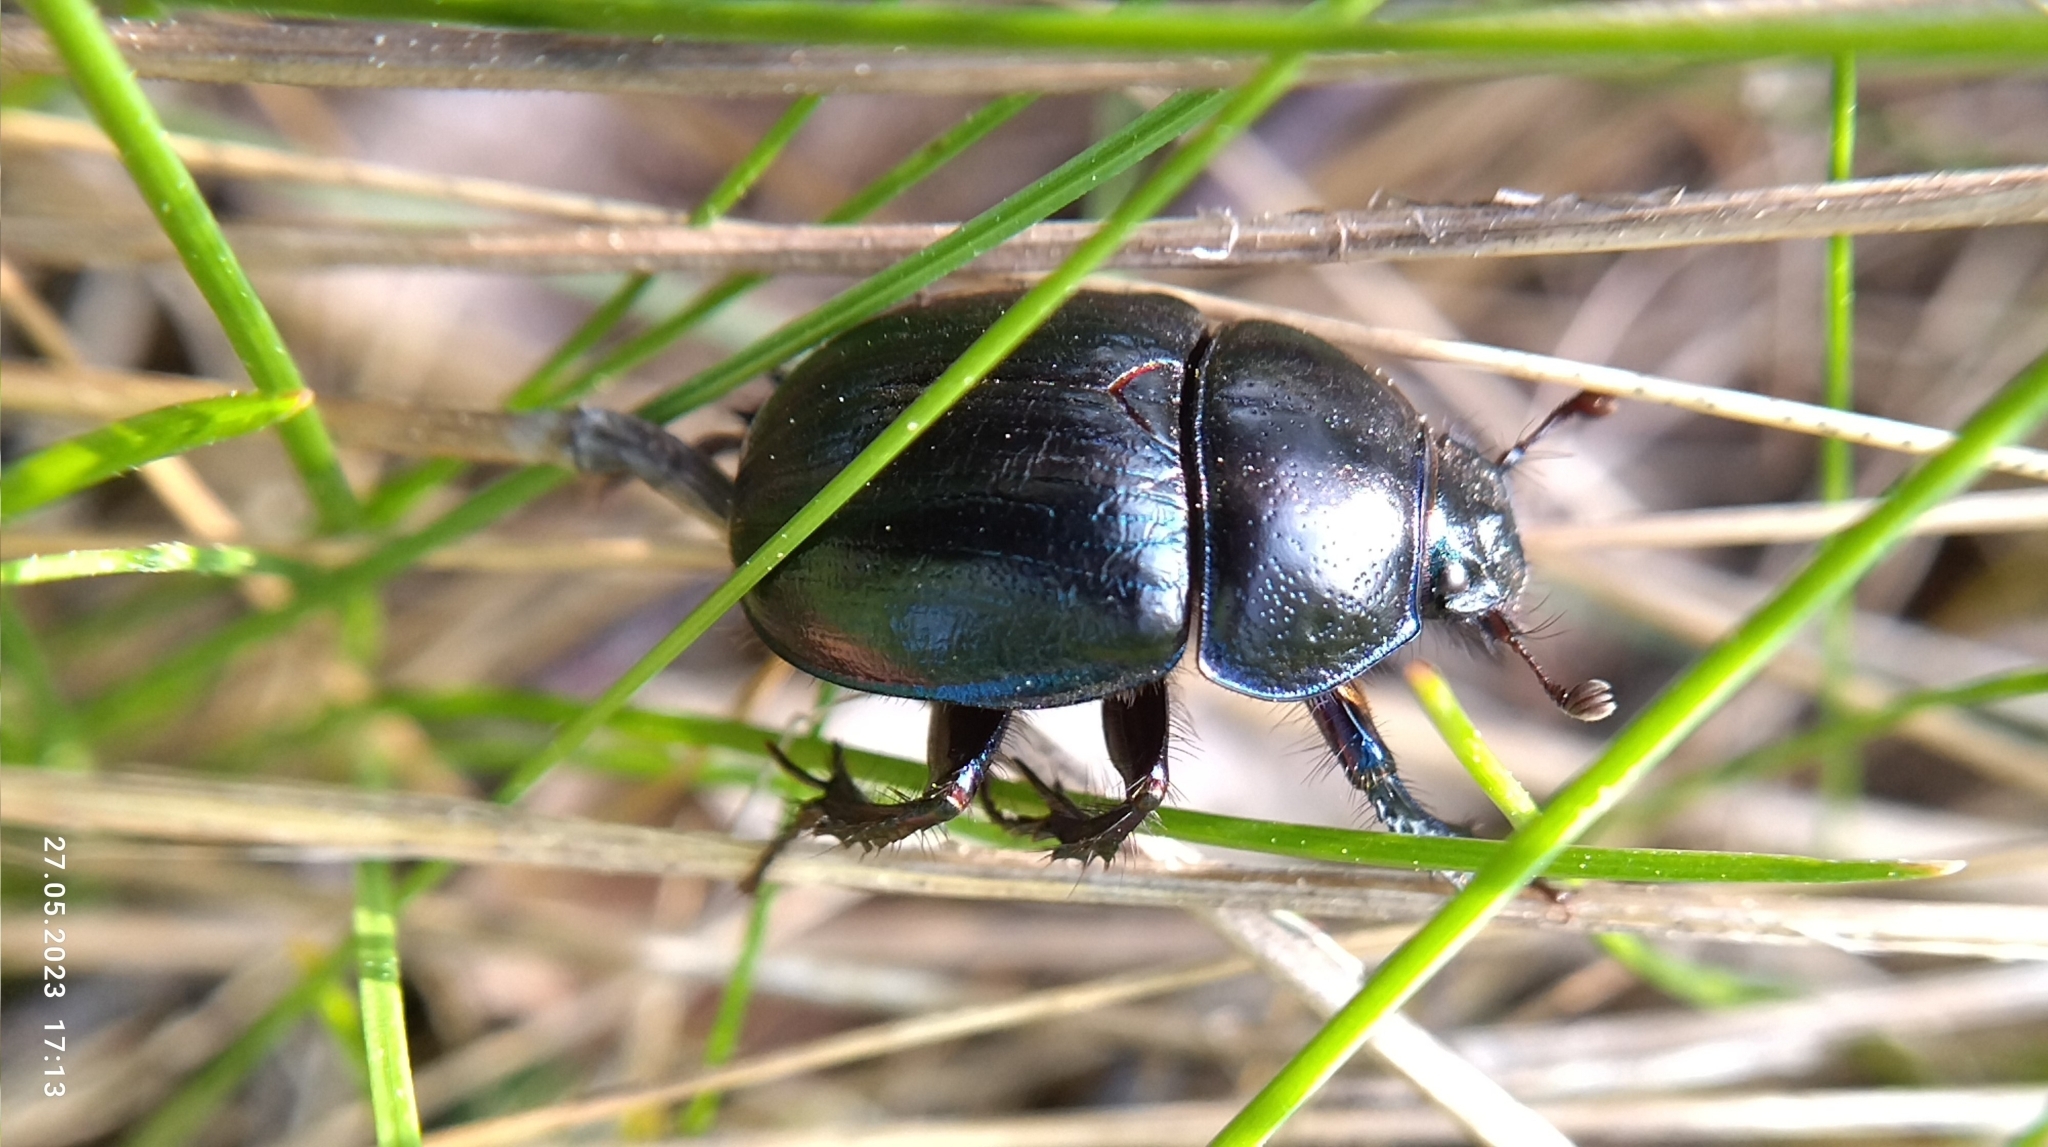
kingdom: Animalia
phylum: Arthropoda
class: Insecta
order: Coleoptera
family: Geotrupidae
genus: Anoplotrupes
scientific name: Anoplotrupes stercorosus
